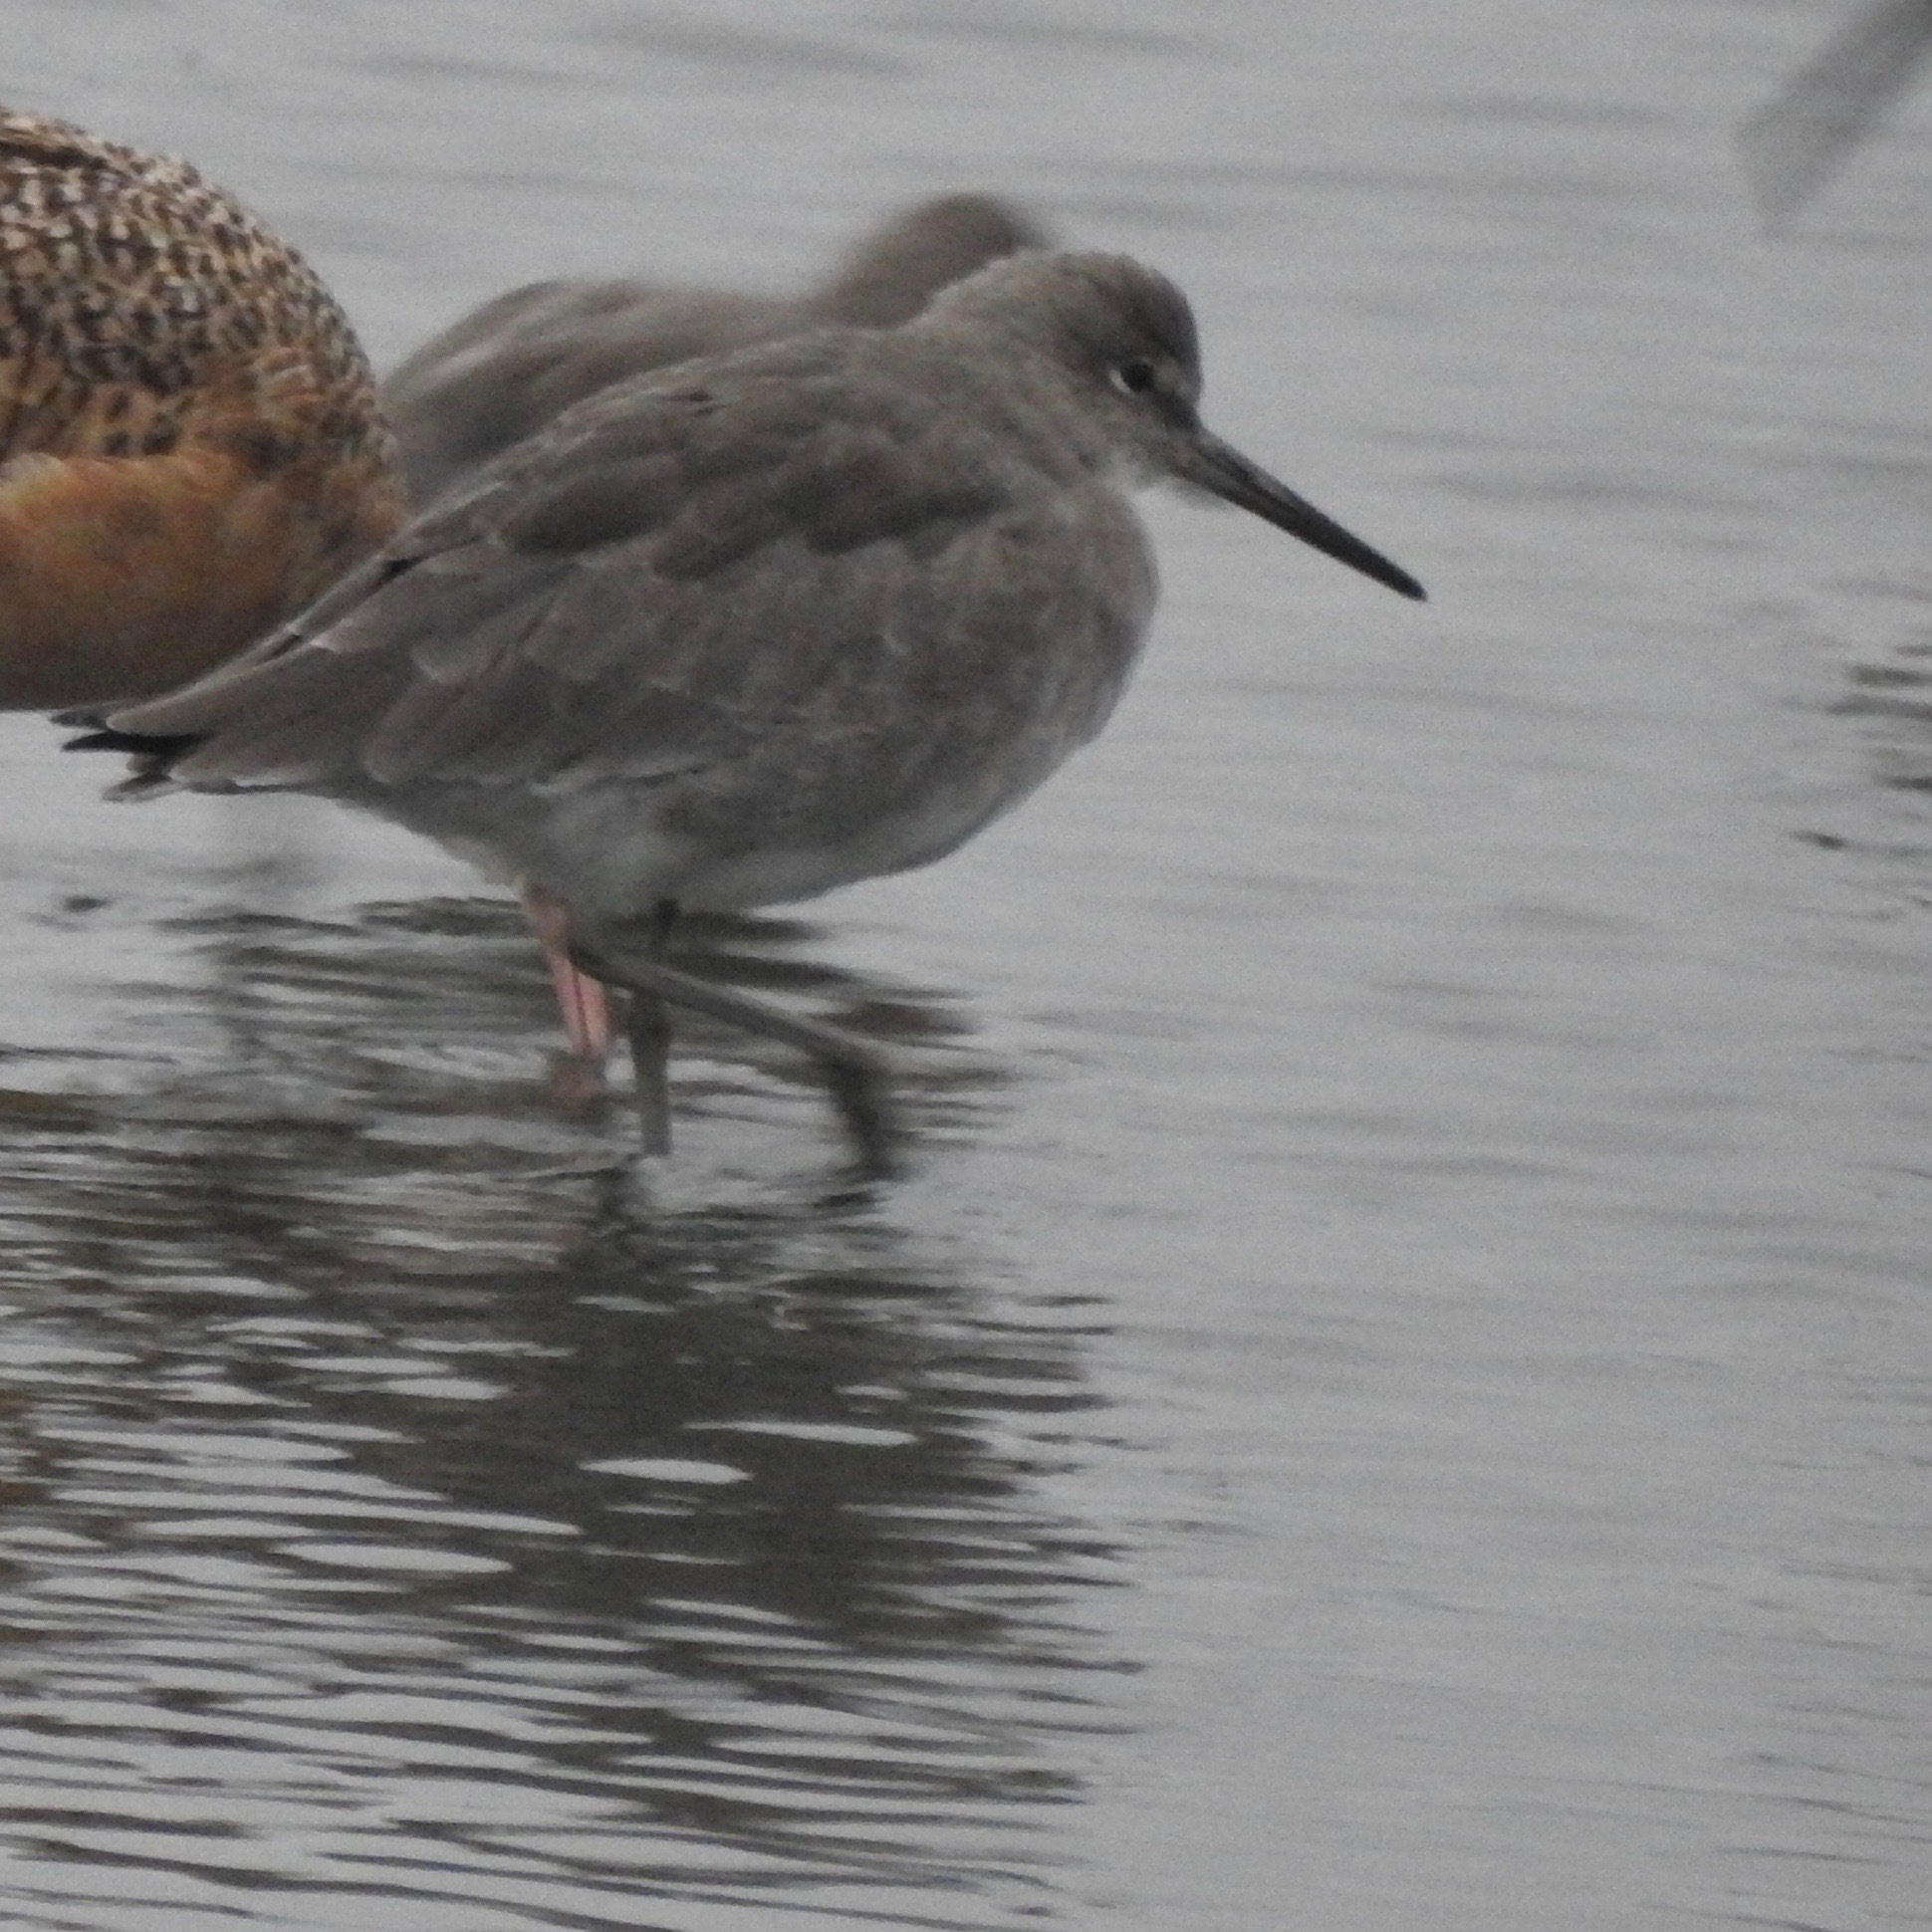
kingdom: Animalia
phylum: Chordata
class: Aves
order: Charadriiformes
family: Scolopacidae
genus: Tringa
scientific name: Tringa semipalmata
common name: Willet
